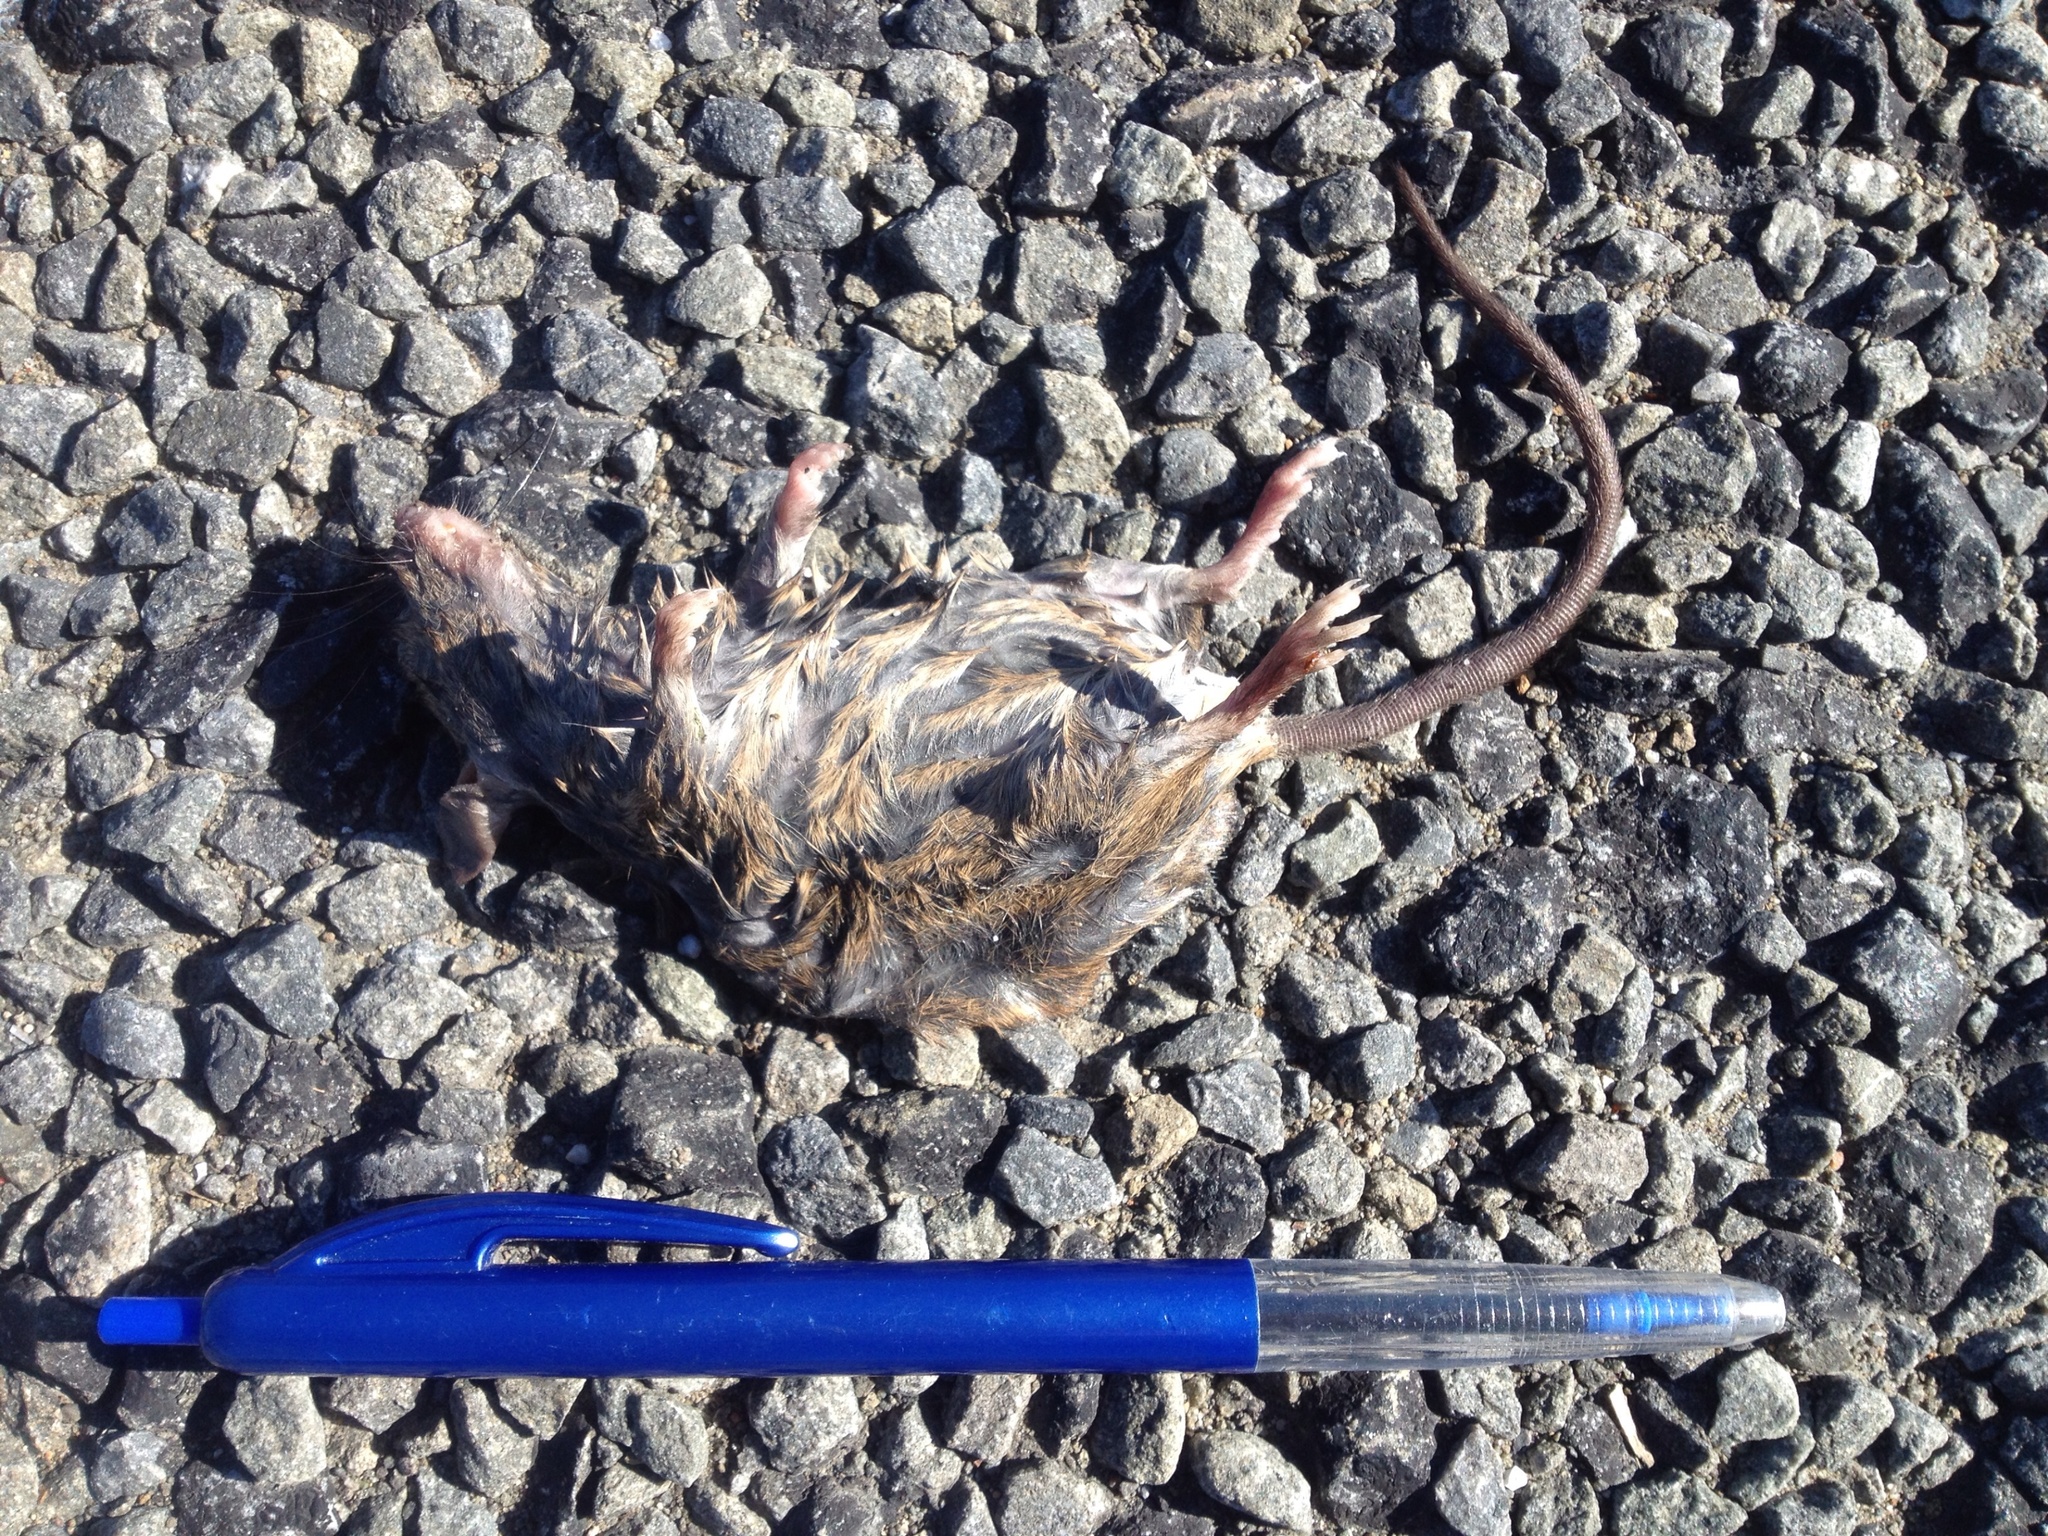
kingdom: Animalia
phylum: Chordata
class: Mammalia
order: Rodentia
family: Muridae
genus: Mus
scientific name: Mus musculus
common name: House mouse
